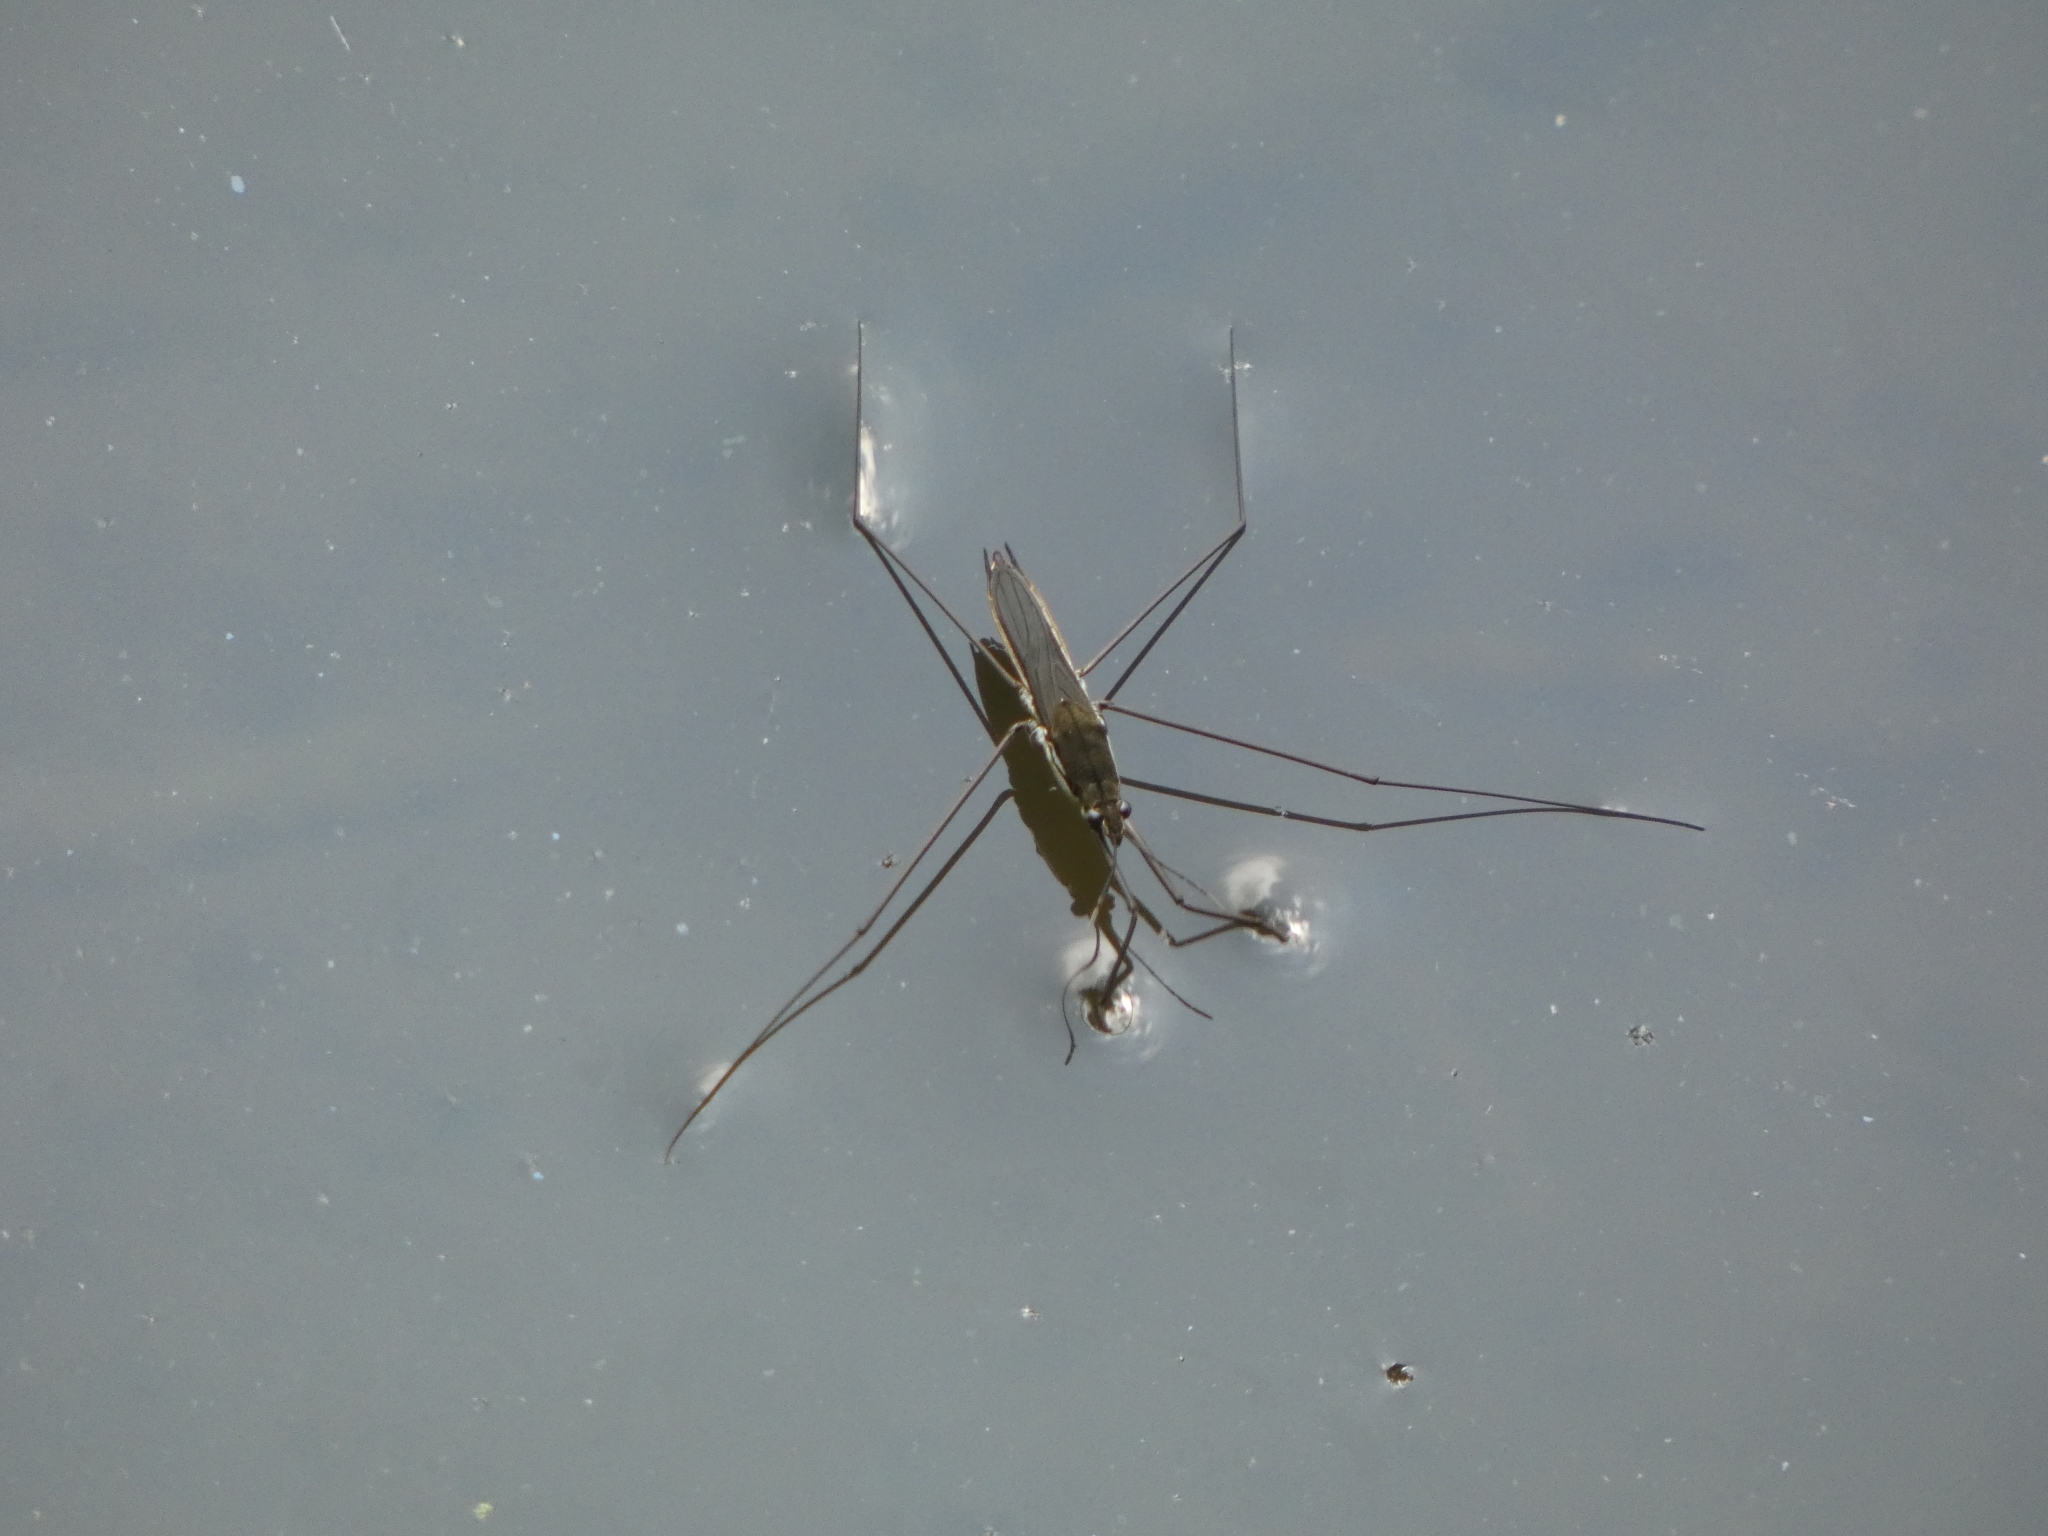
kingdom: Animalia
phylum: Arthropoda
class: Insecta
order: Hemiptera
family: Gerridae
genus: Aquarius
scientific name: Aquarius paludum
